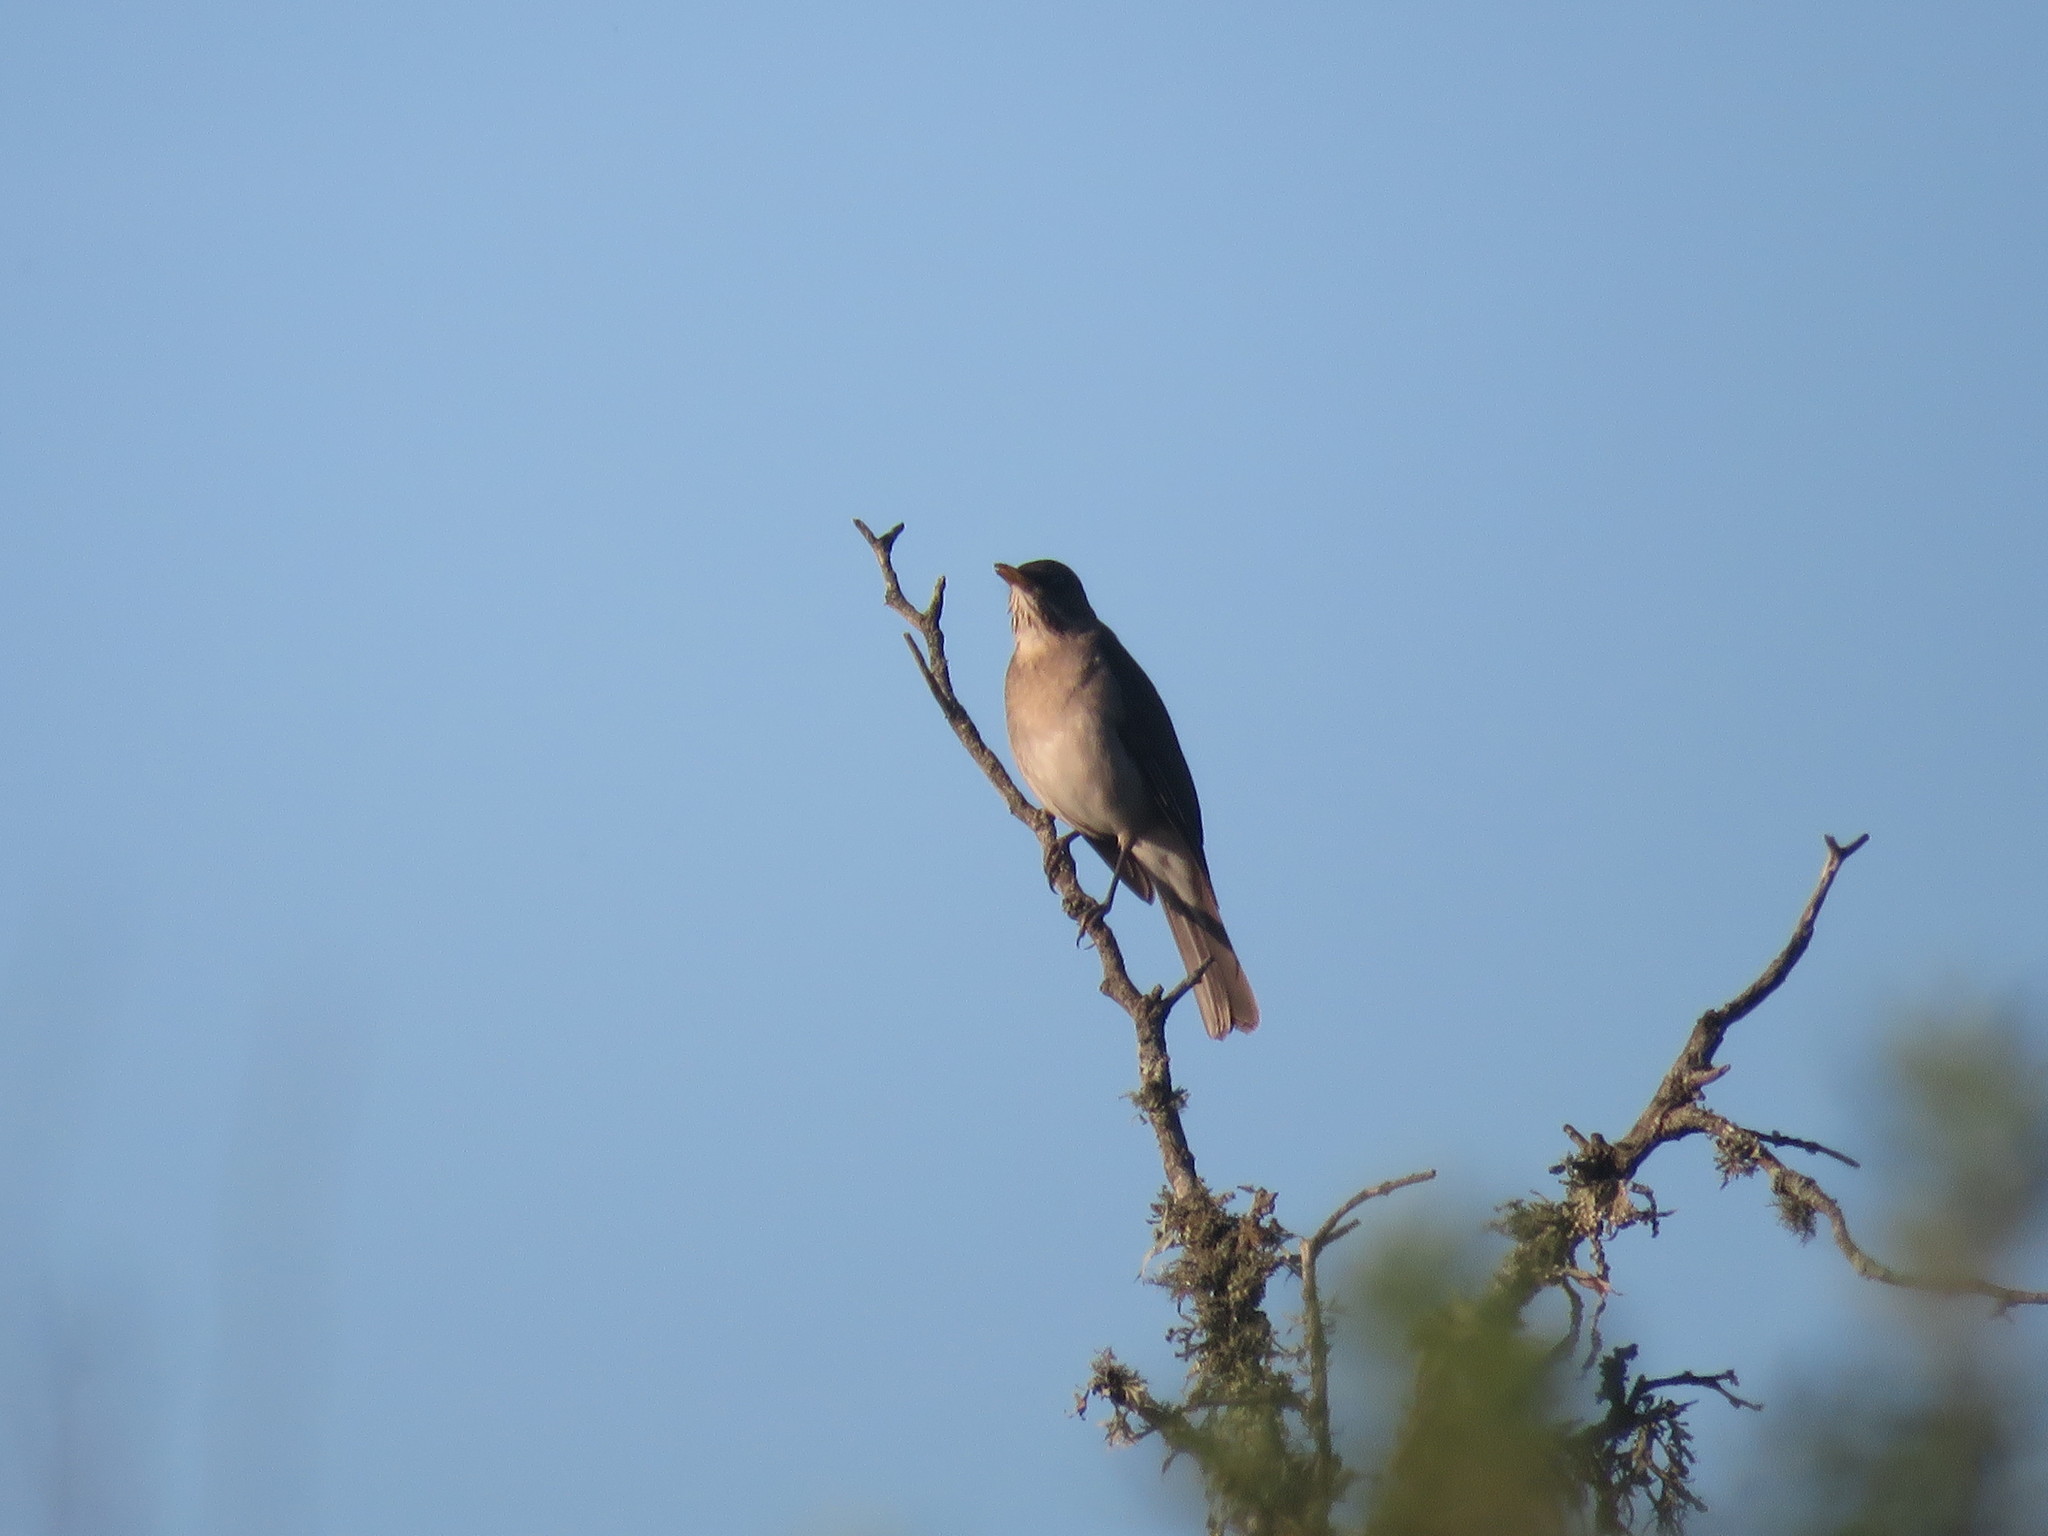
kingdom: Animalia
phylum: Chordata
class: Aves
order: Passeriformes
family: Turdidae
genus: Turdus
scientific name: Turdus amaurochalinus
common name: Creamy-bellied thrush
